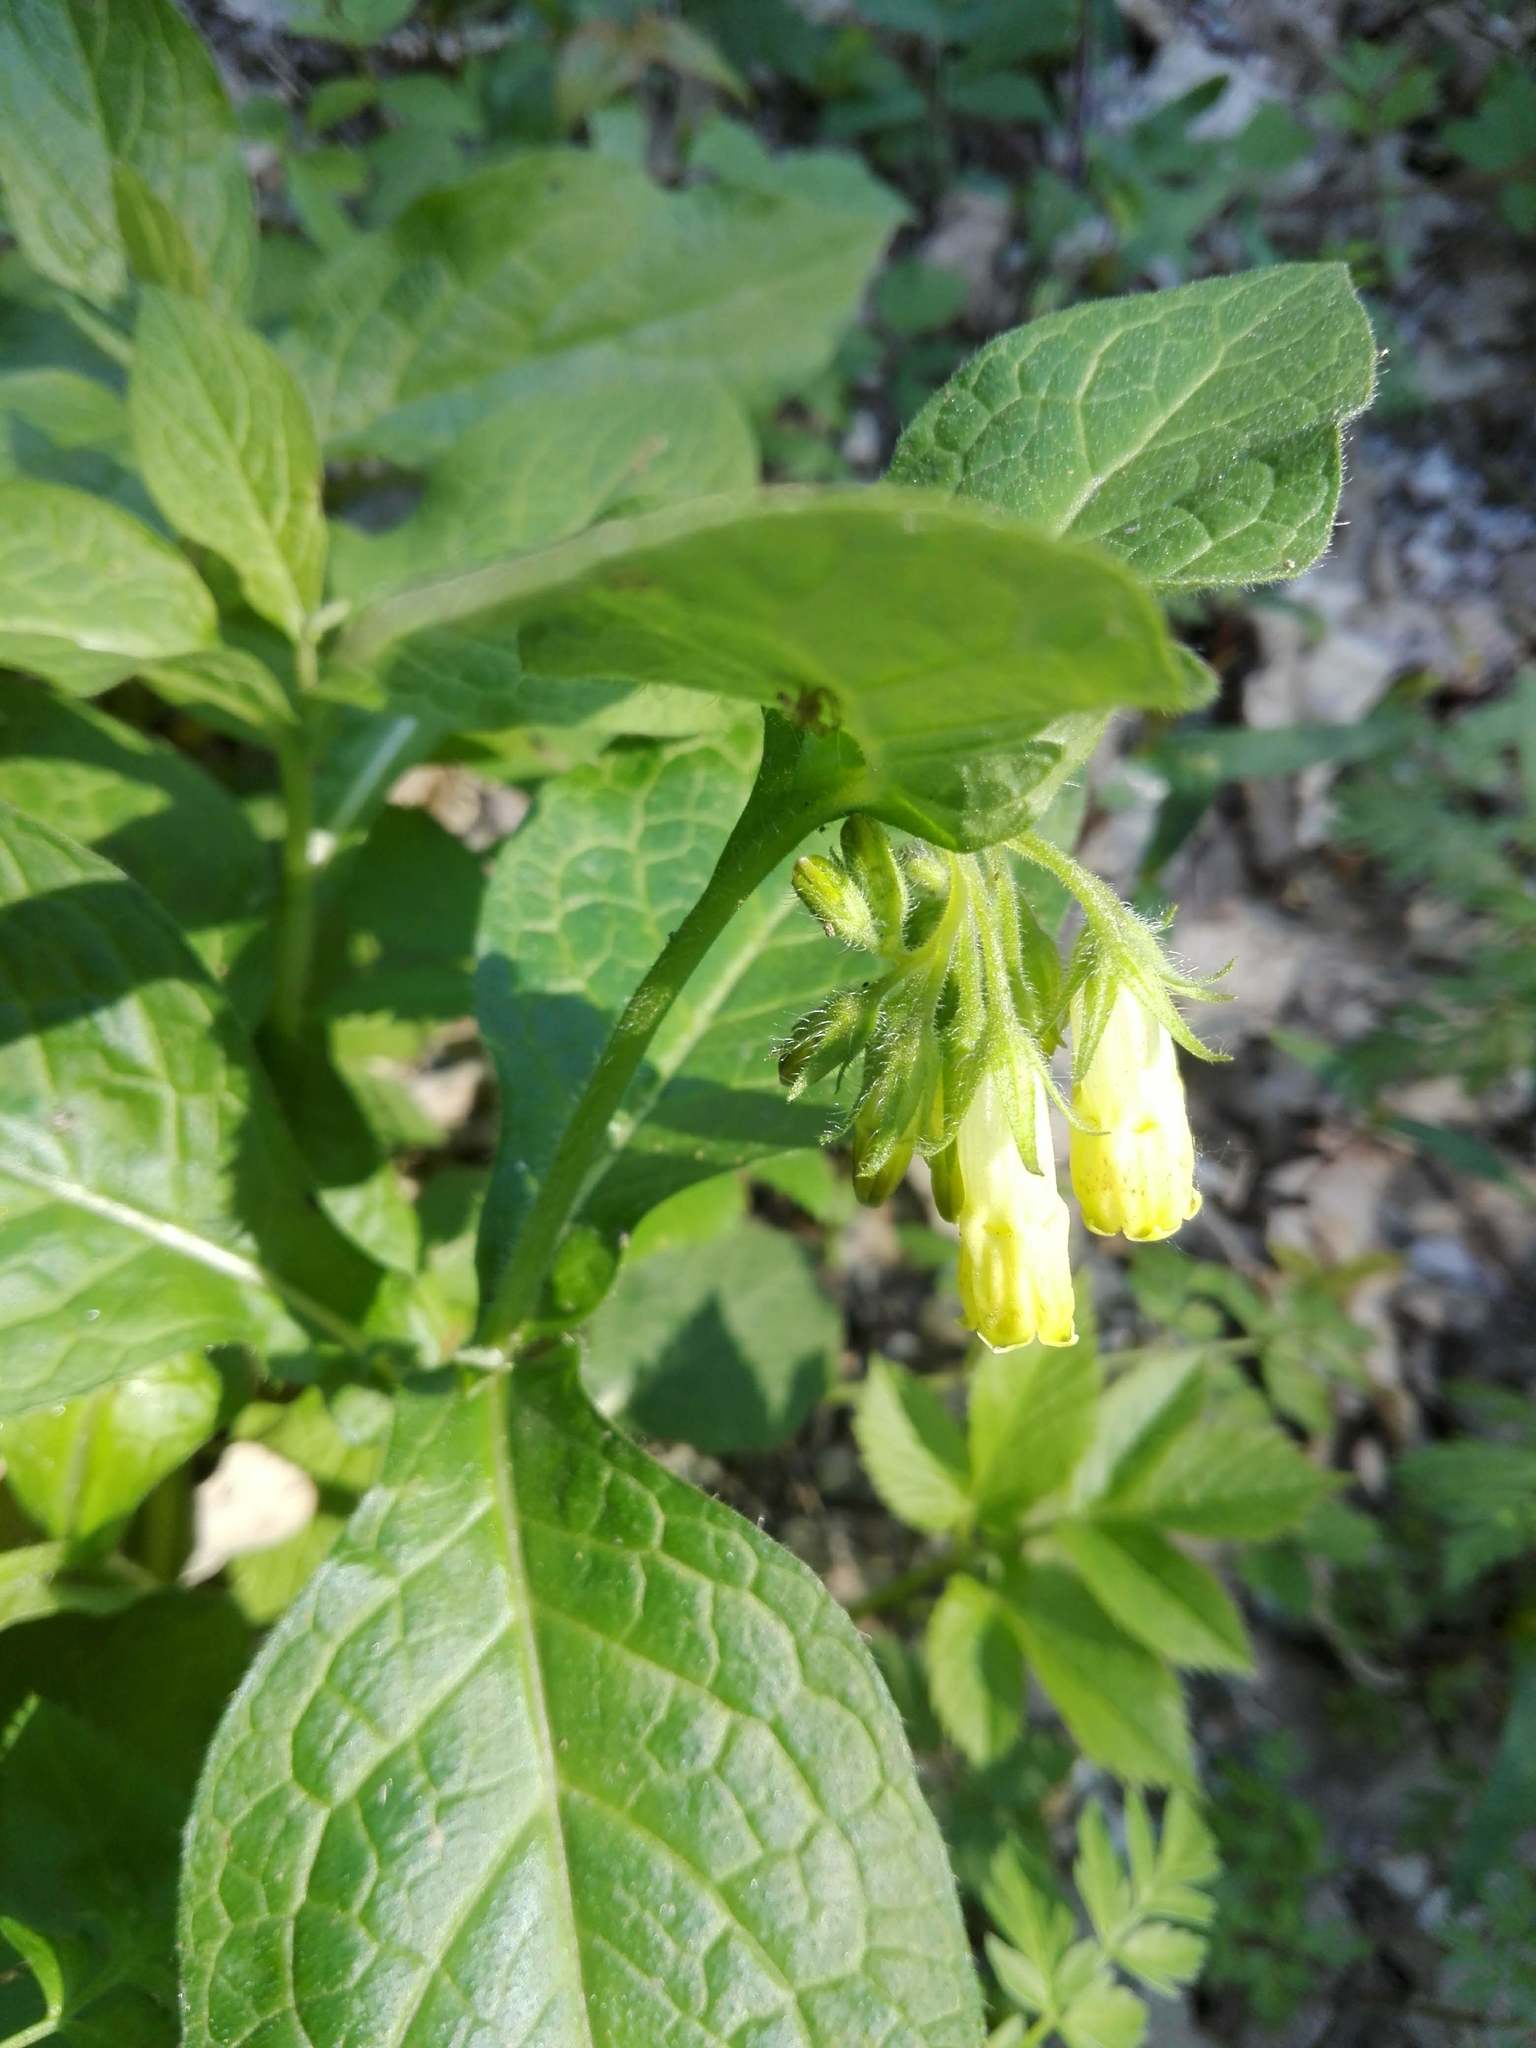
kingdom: Plantae
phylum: Tracheophyta
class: Magnoliopsida
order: Boraginales
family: Boraginaceae
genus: Symphytum
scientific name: Symphytum tuberosum
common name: Tuberous comfrey
